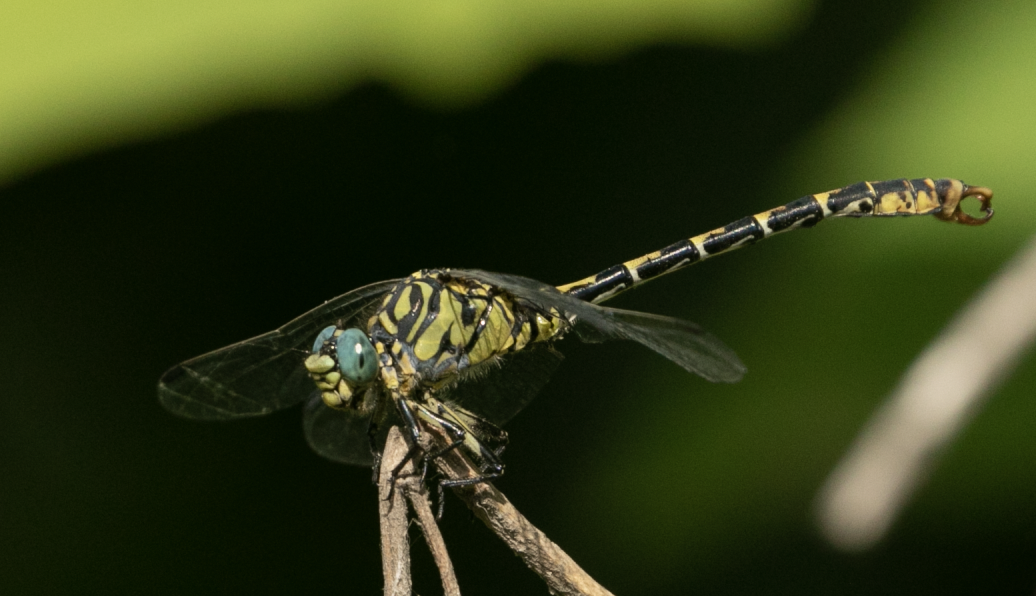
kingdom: Animalia
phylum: Arthropoda
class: Insecta
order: Odonata
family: Gomphidae
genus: Onychogomphus
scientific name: Onychogomphus forcipatus
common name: Small pincertail
